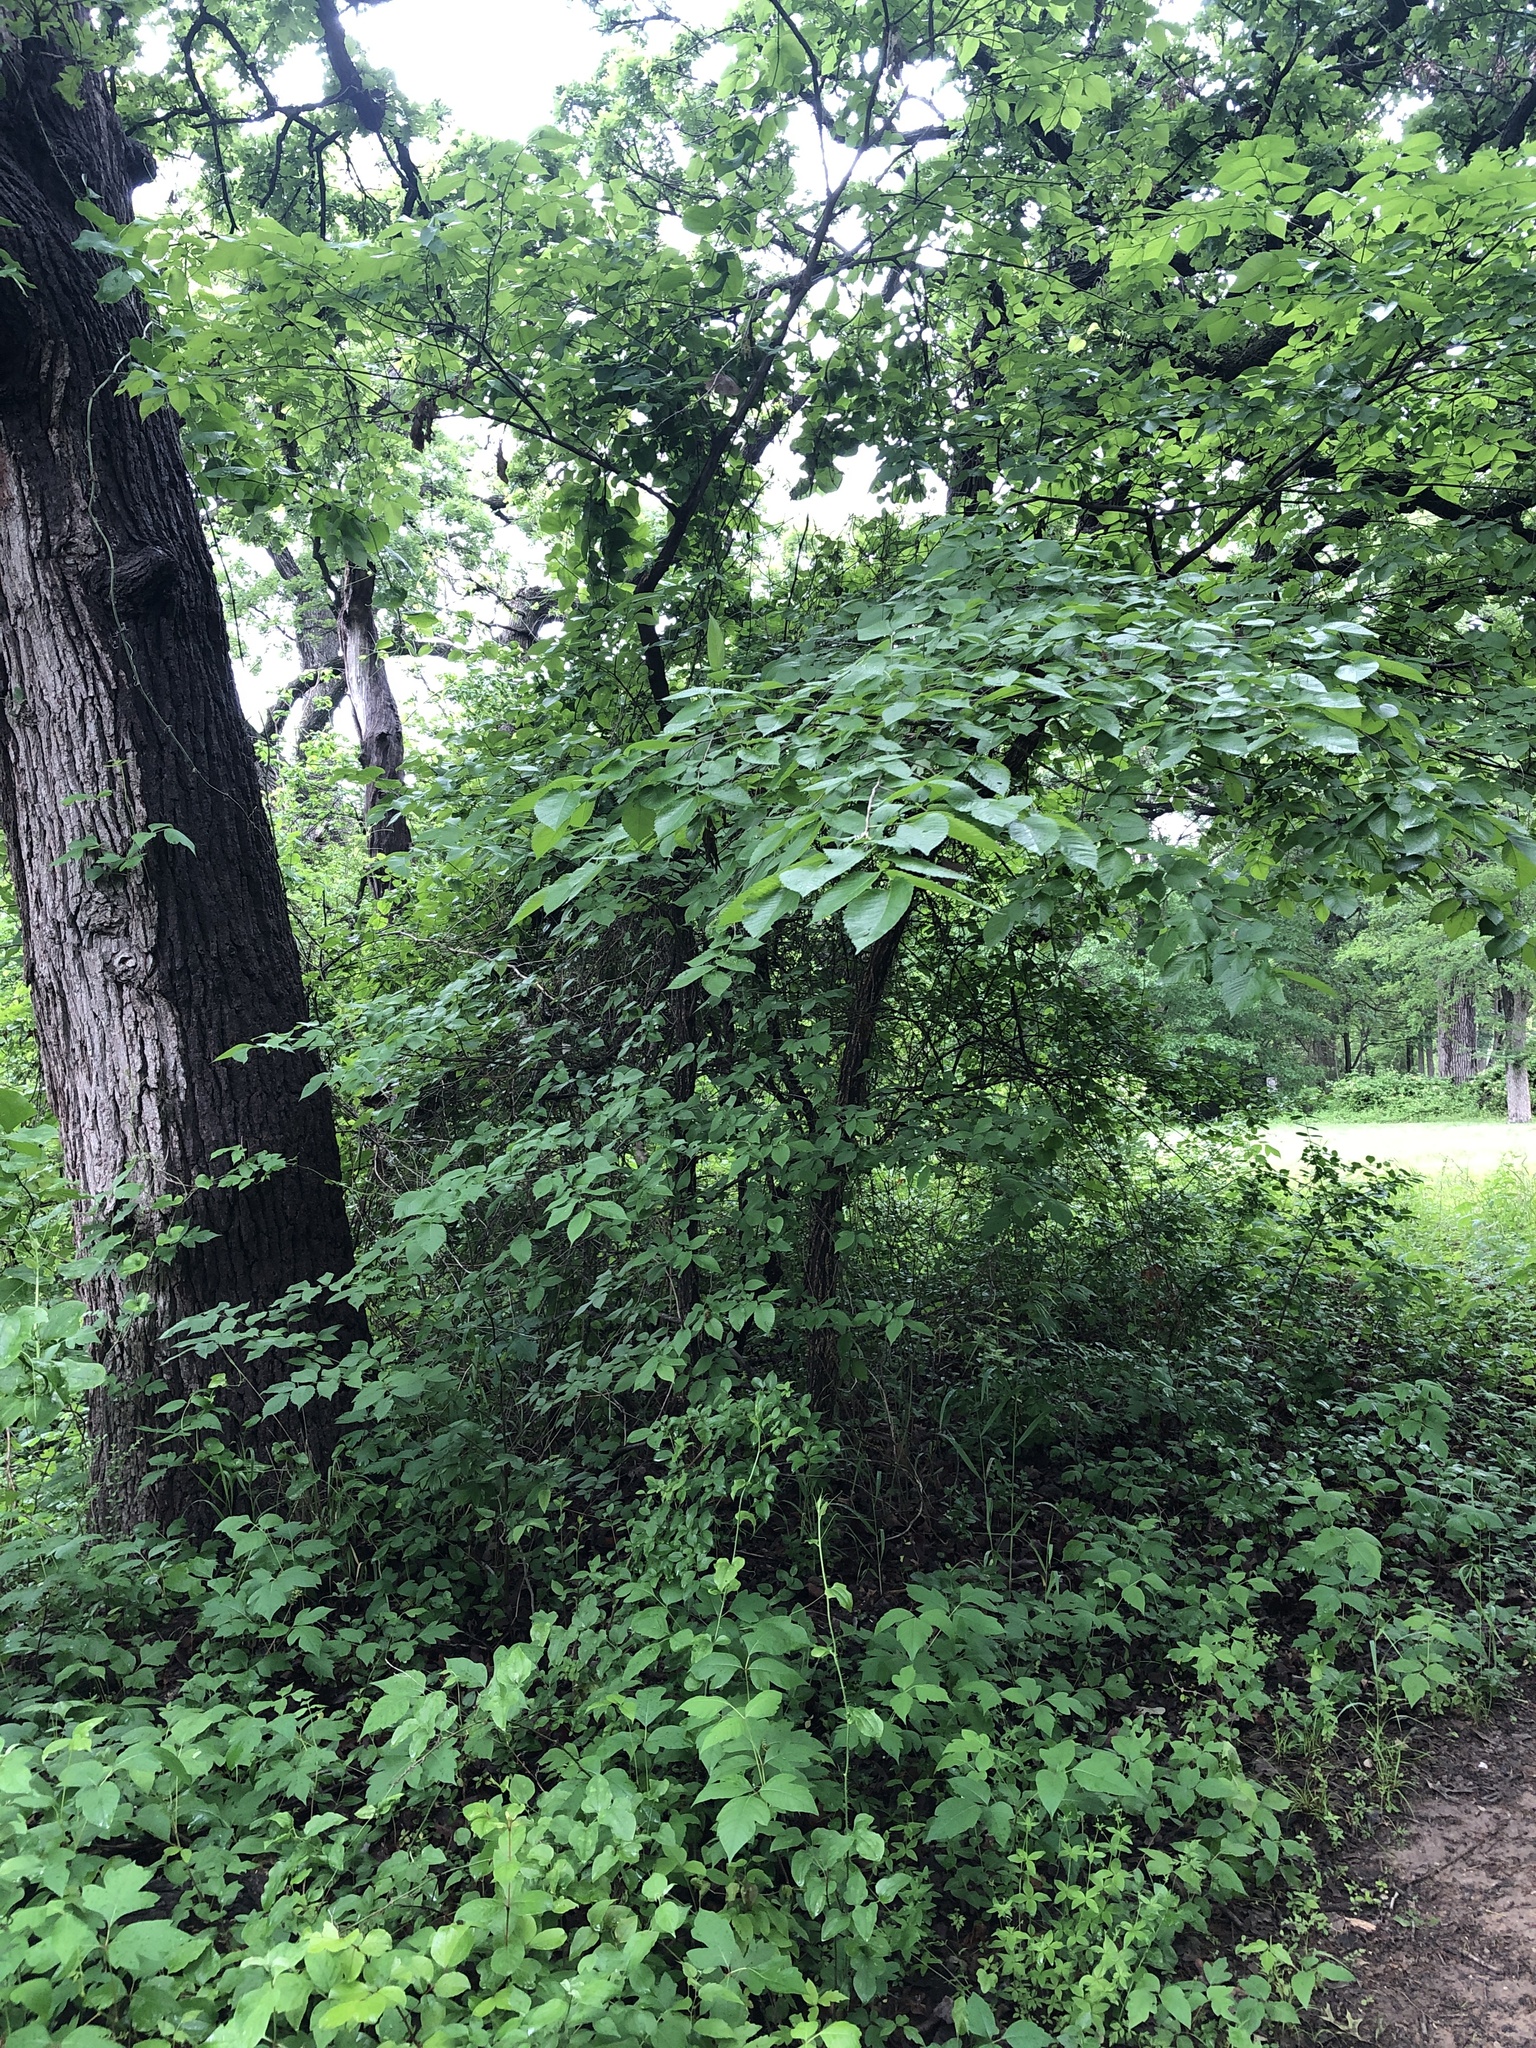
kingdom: Plantae
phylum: Tracheophyta
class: Magnoliopsida
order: Rosales
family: Ulmaceae
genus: Ulmus
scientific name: Ulmus americana
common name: American elm
